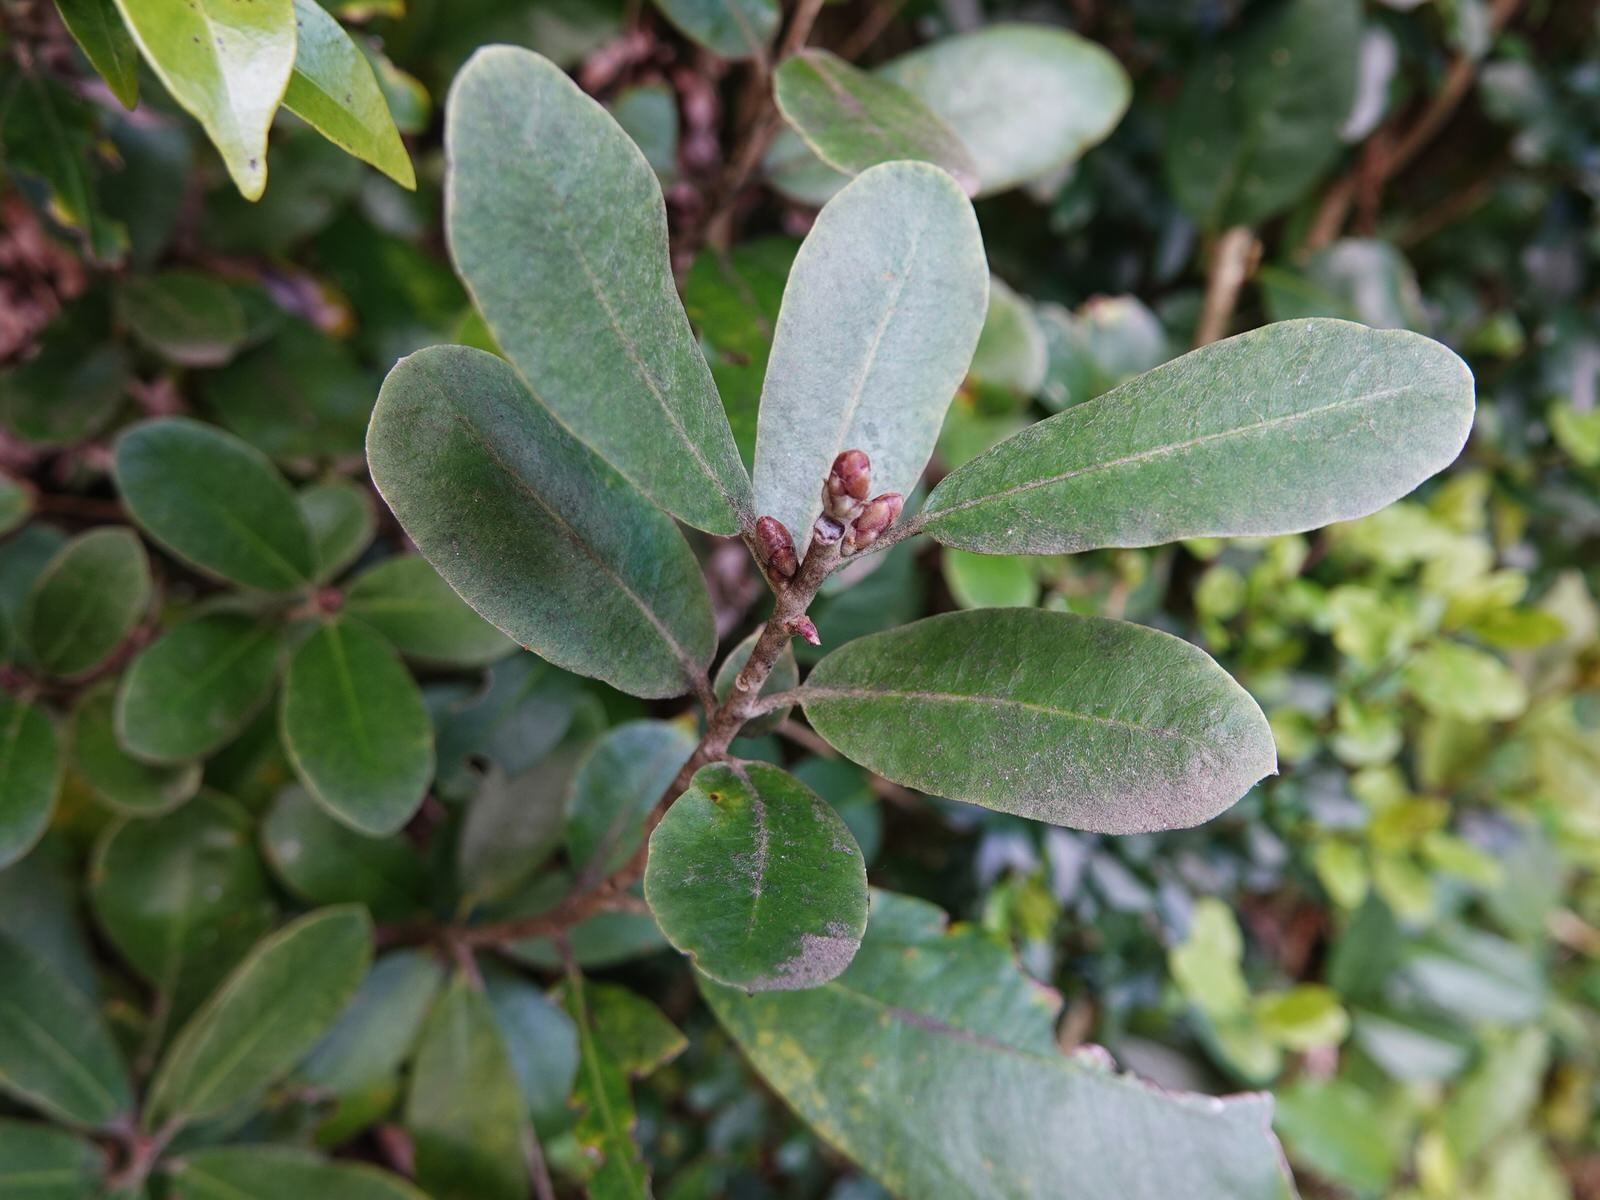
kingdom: Plantae
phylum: Tracheophyta
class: Magnoliopsida
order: Apiales
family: Pittosporaceae
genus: Pittosporum
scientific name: Pittosporum huttonianum
